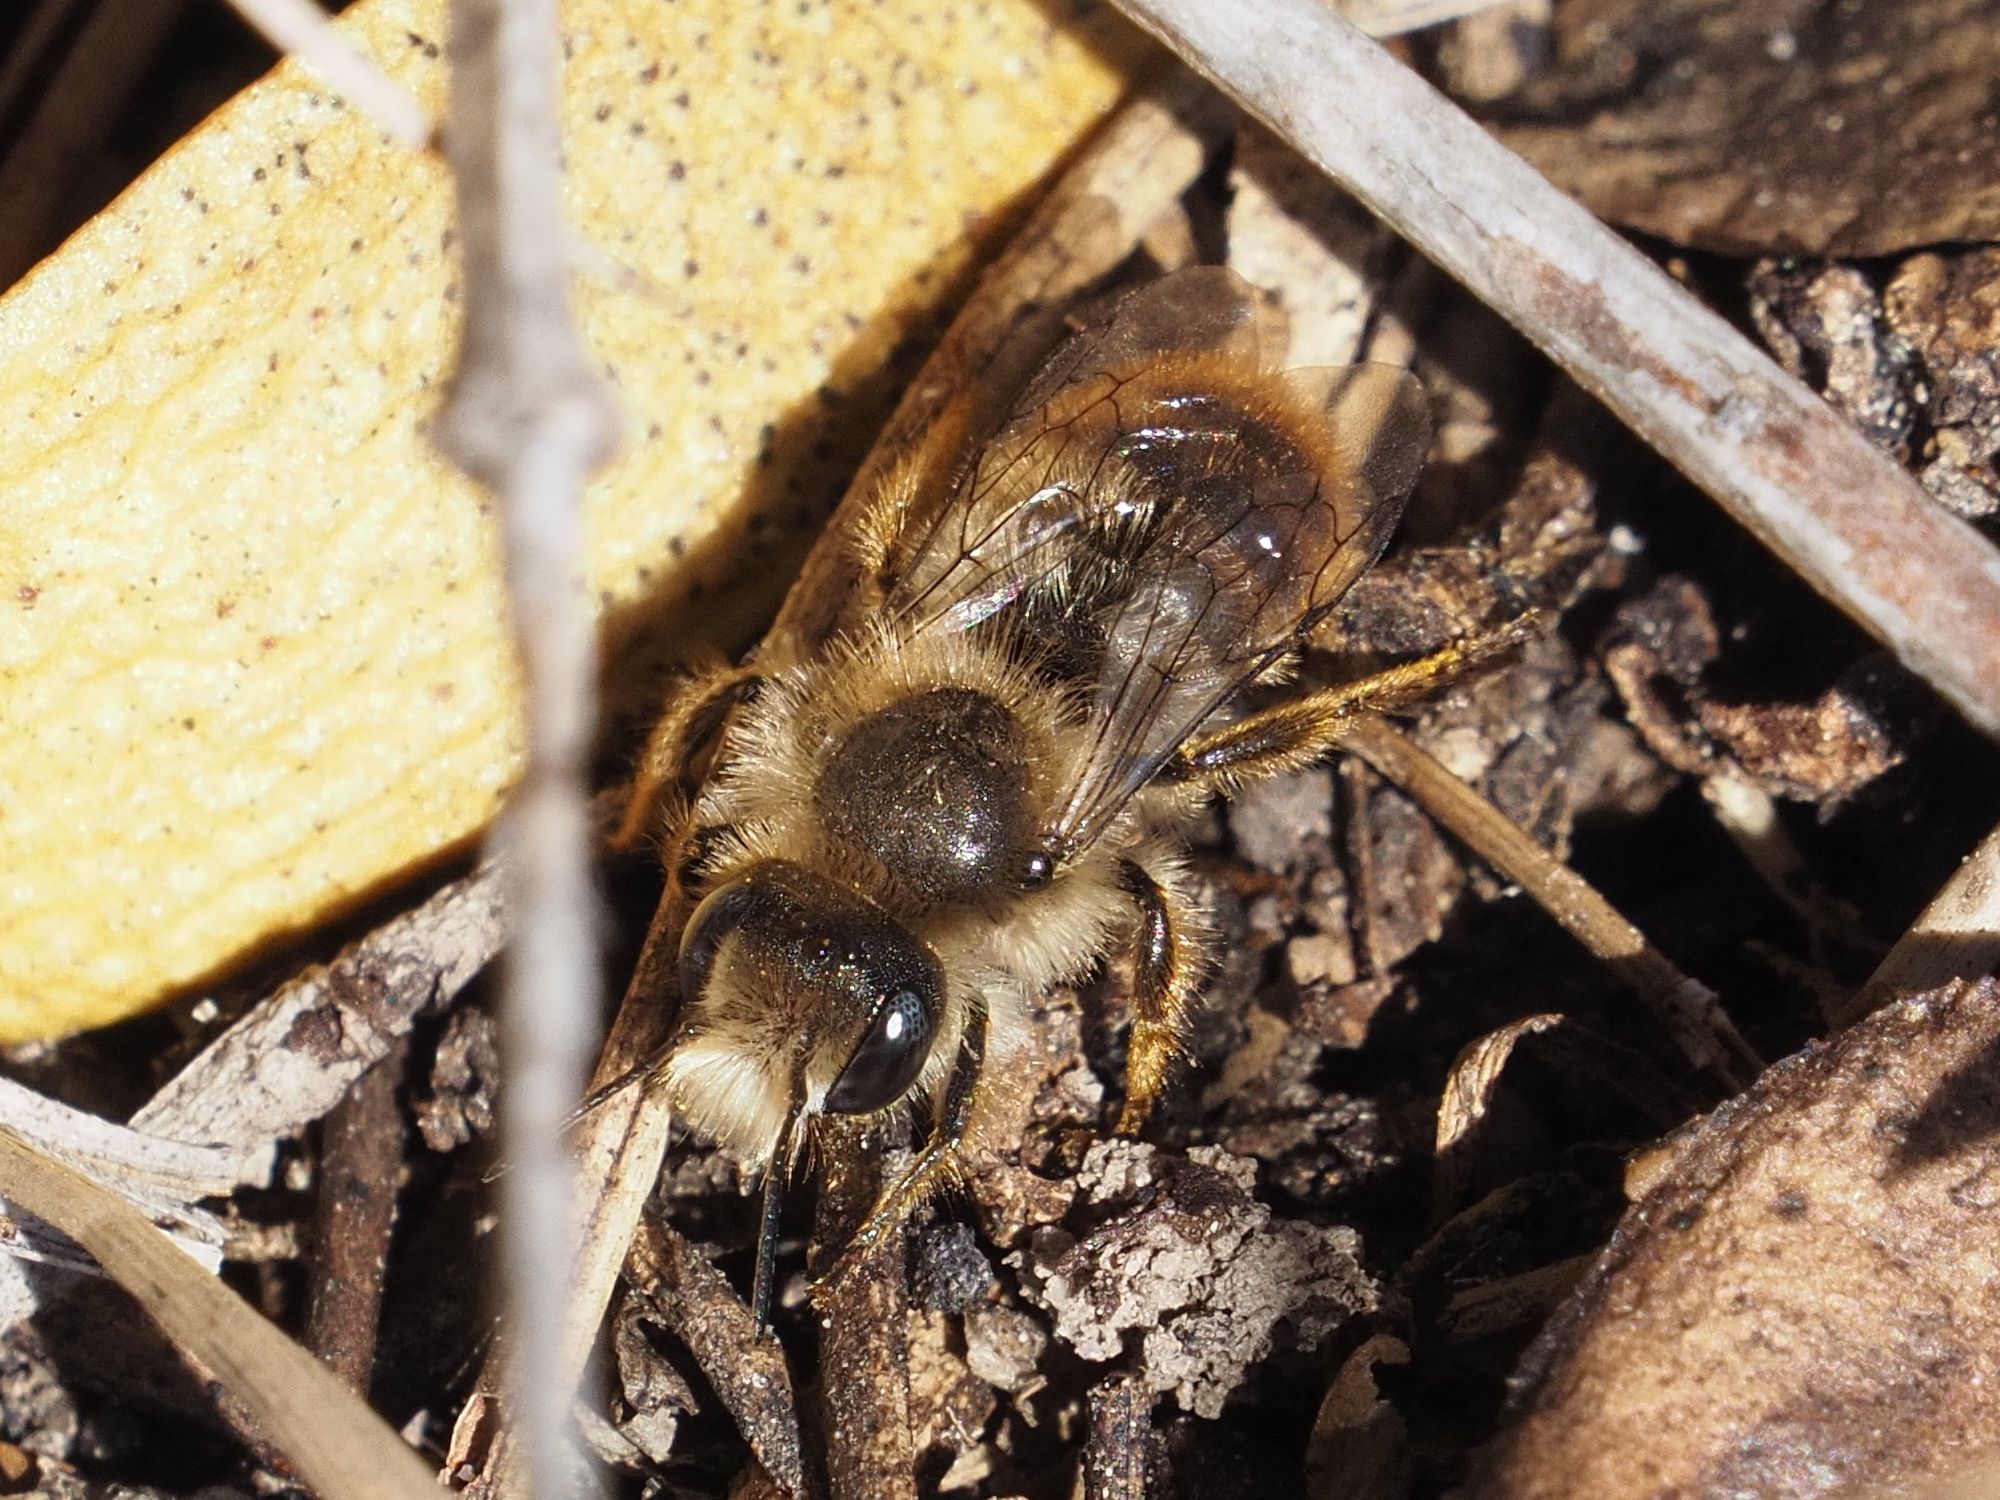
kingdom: Animalia
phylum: Arthropoda
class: Insecta
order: Hymenoptera
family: Megachilidae
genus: Osmia
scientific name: Osmia bicolor
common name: Red-tailed mason bee
